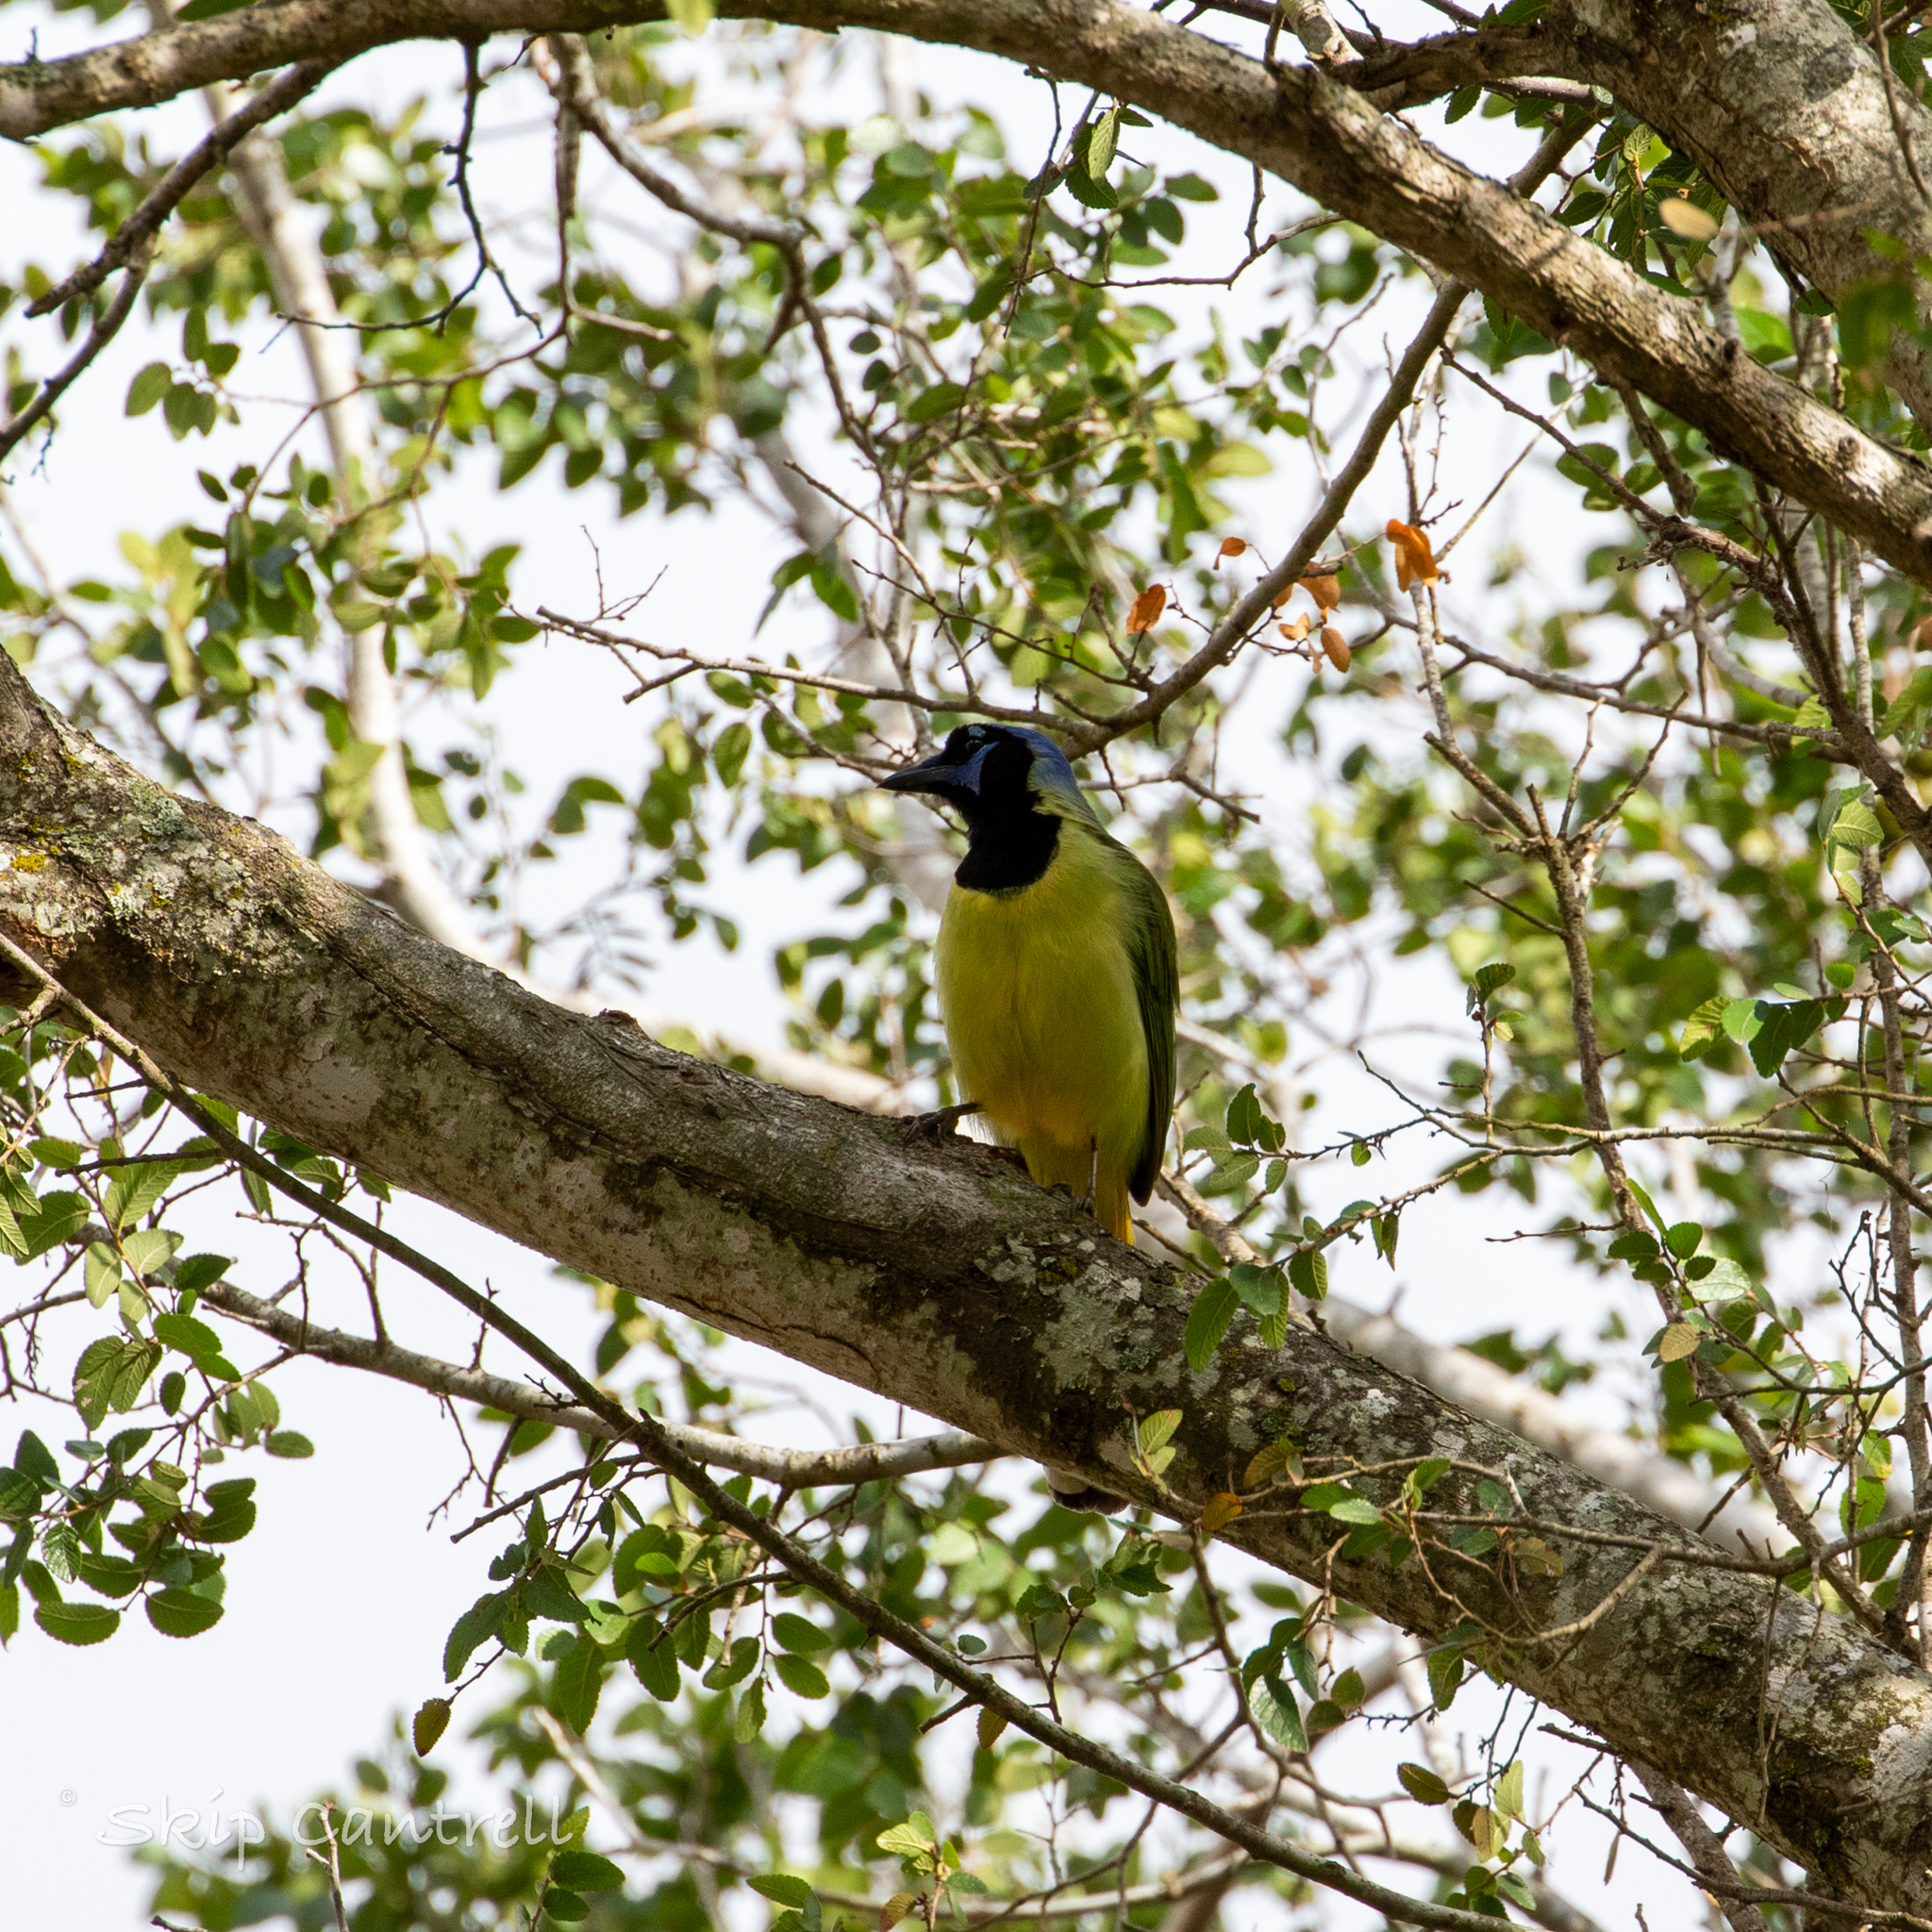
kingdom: Animalia
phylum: Chordata
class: Aves
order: Passeriformes
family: Corvidae
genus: Cyanocorax
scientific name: Cyanocorax yncas
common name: Green jay
